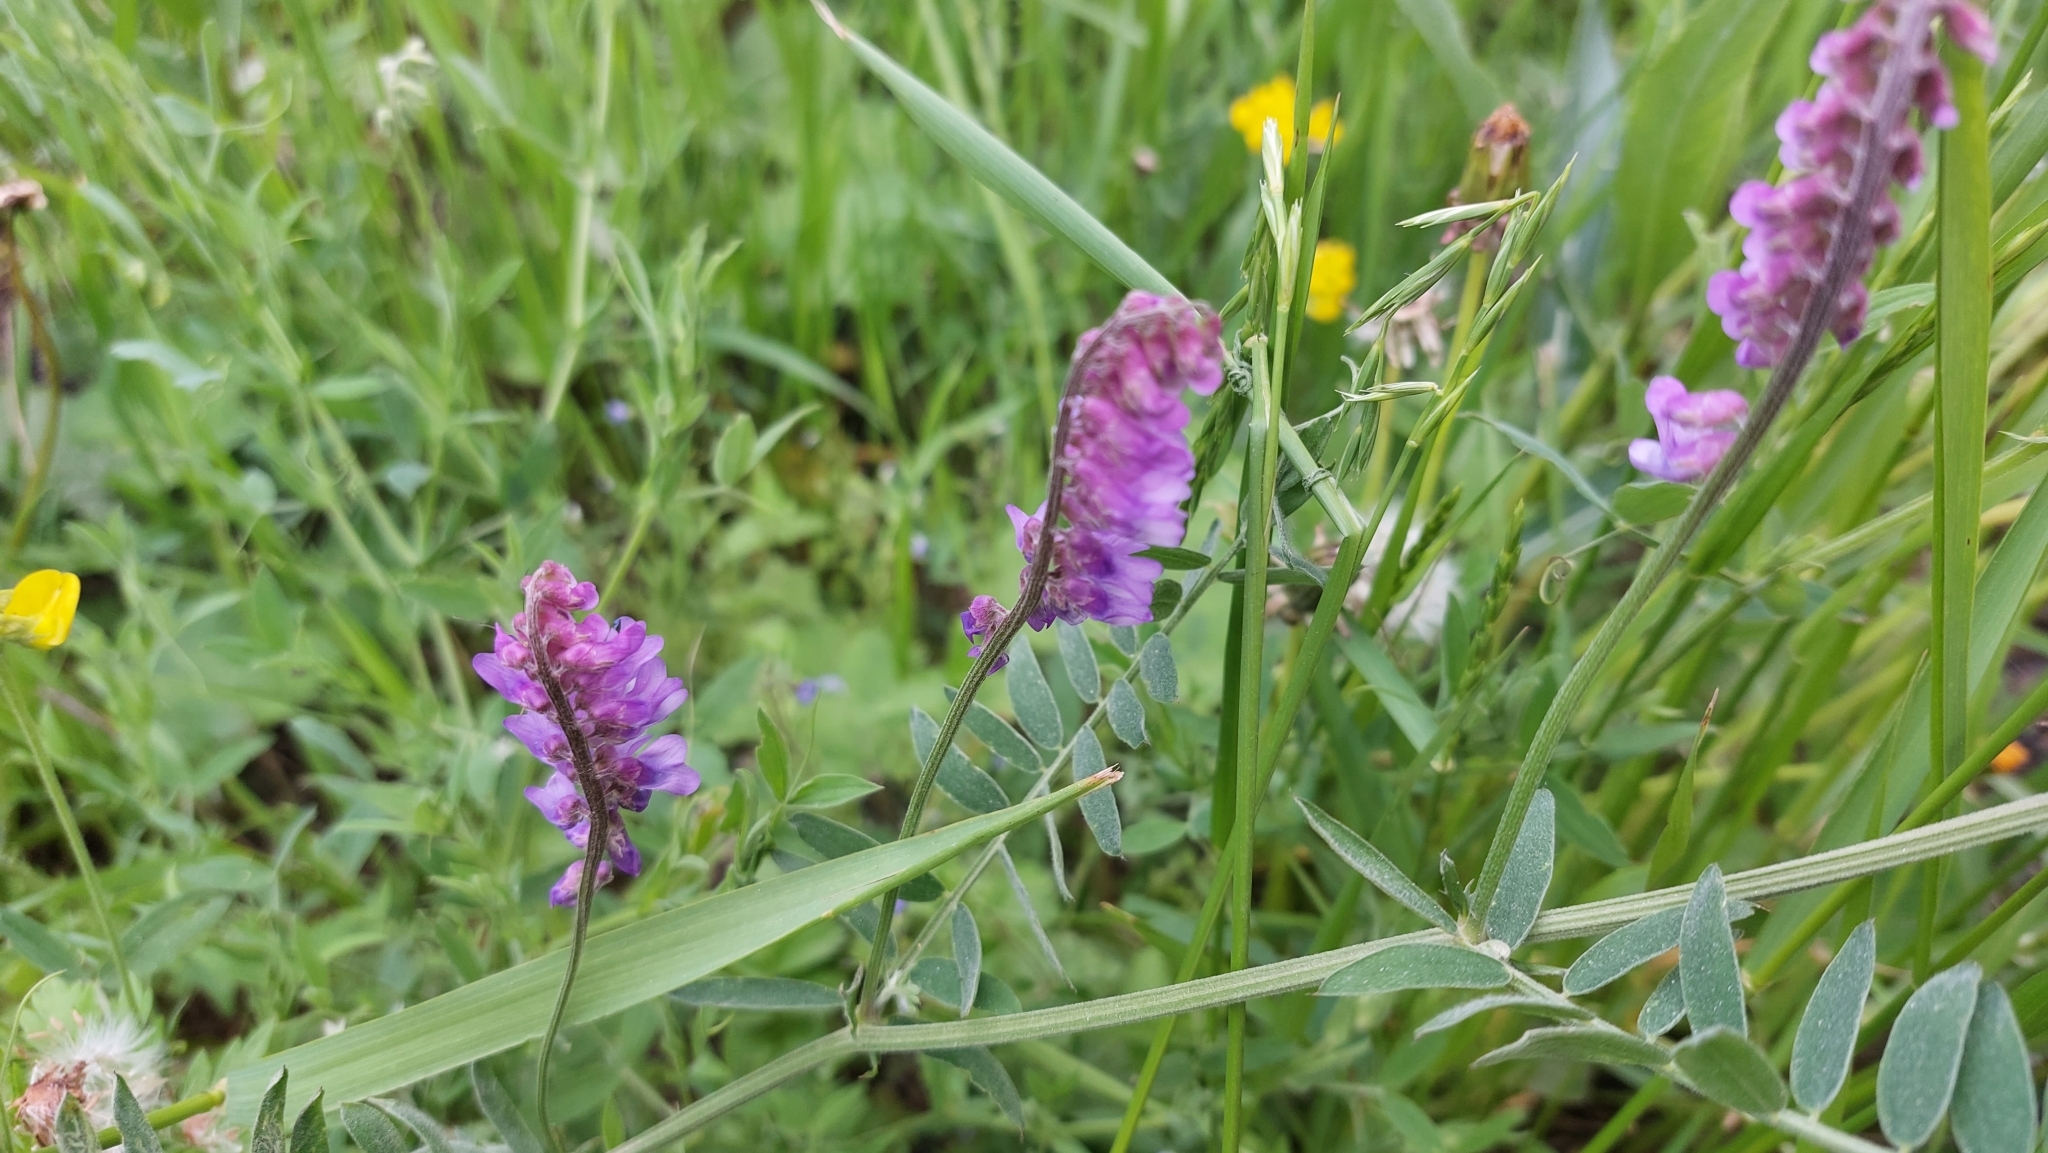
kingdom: Plantae
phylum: Tracheophyta
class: Magnoliopsida
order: Fabales
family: Fabaceae
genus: Vicia
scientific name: Vicia cracca
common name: Bird vetch
